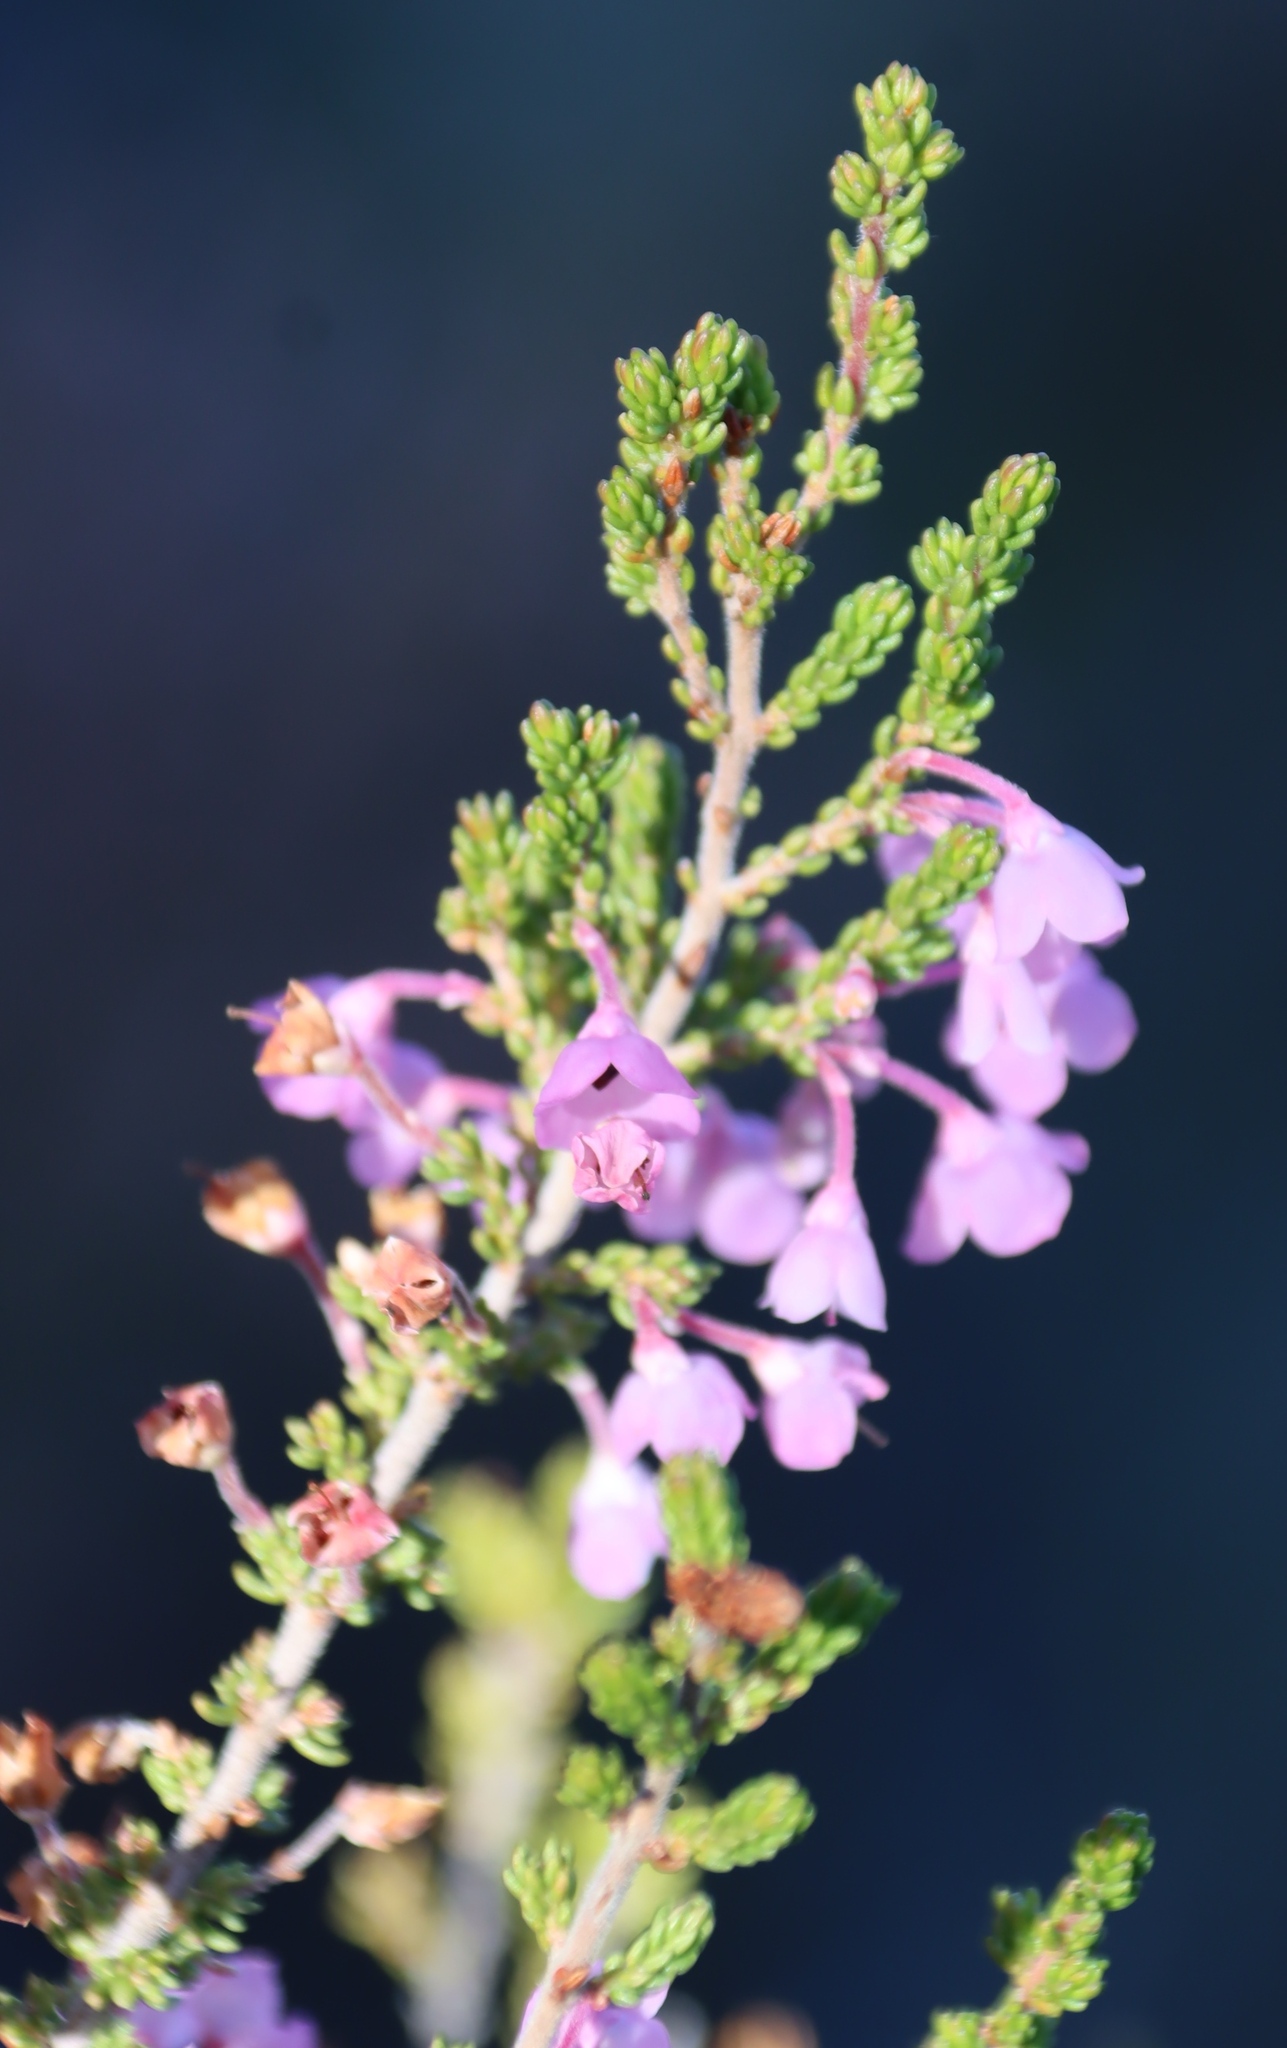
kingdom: Plantae
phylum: Tracheophyta
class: Magnoliopsida
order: Ericales
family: Ericaceae
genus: Erica
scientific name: Erica newdigatei
